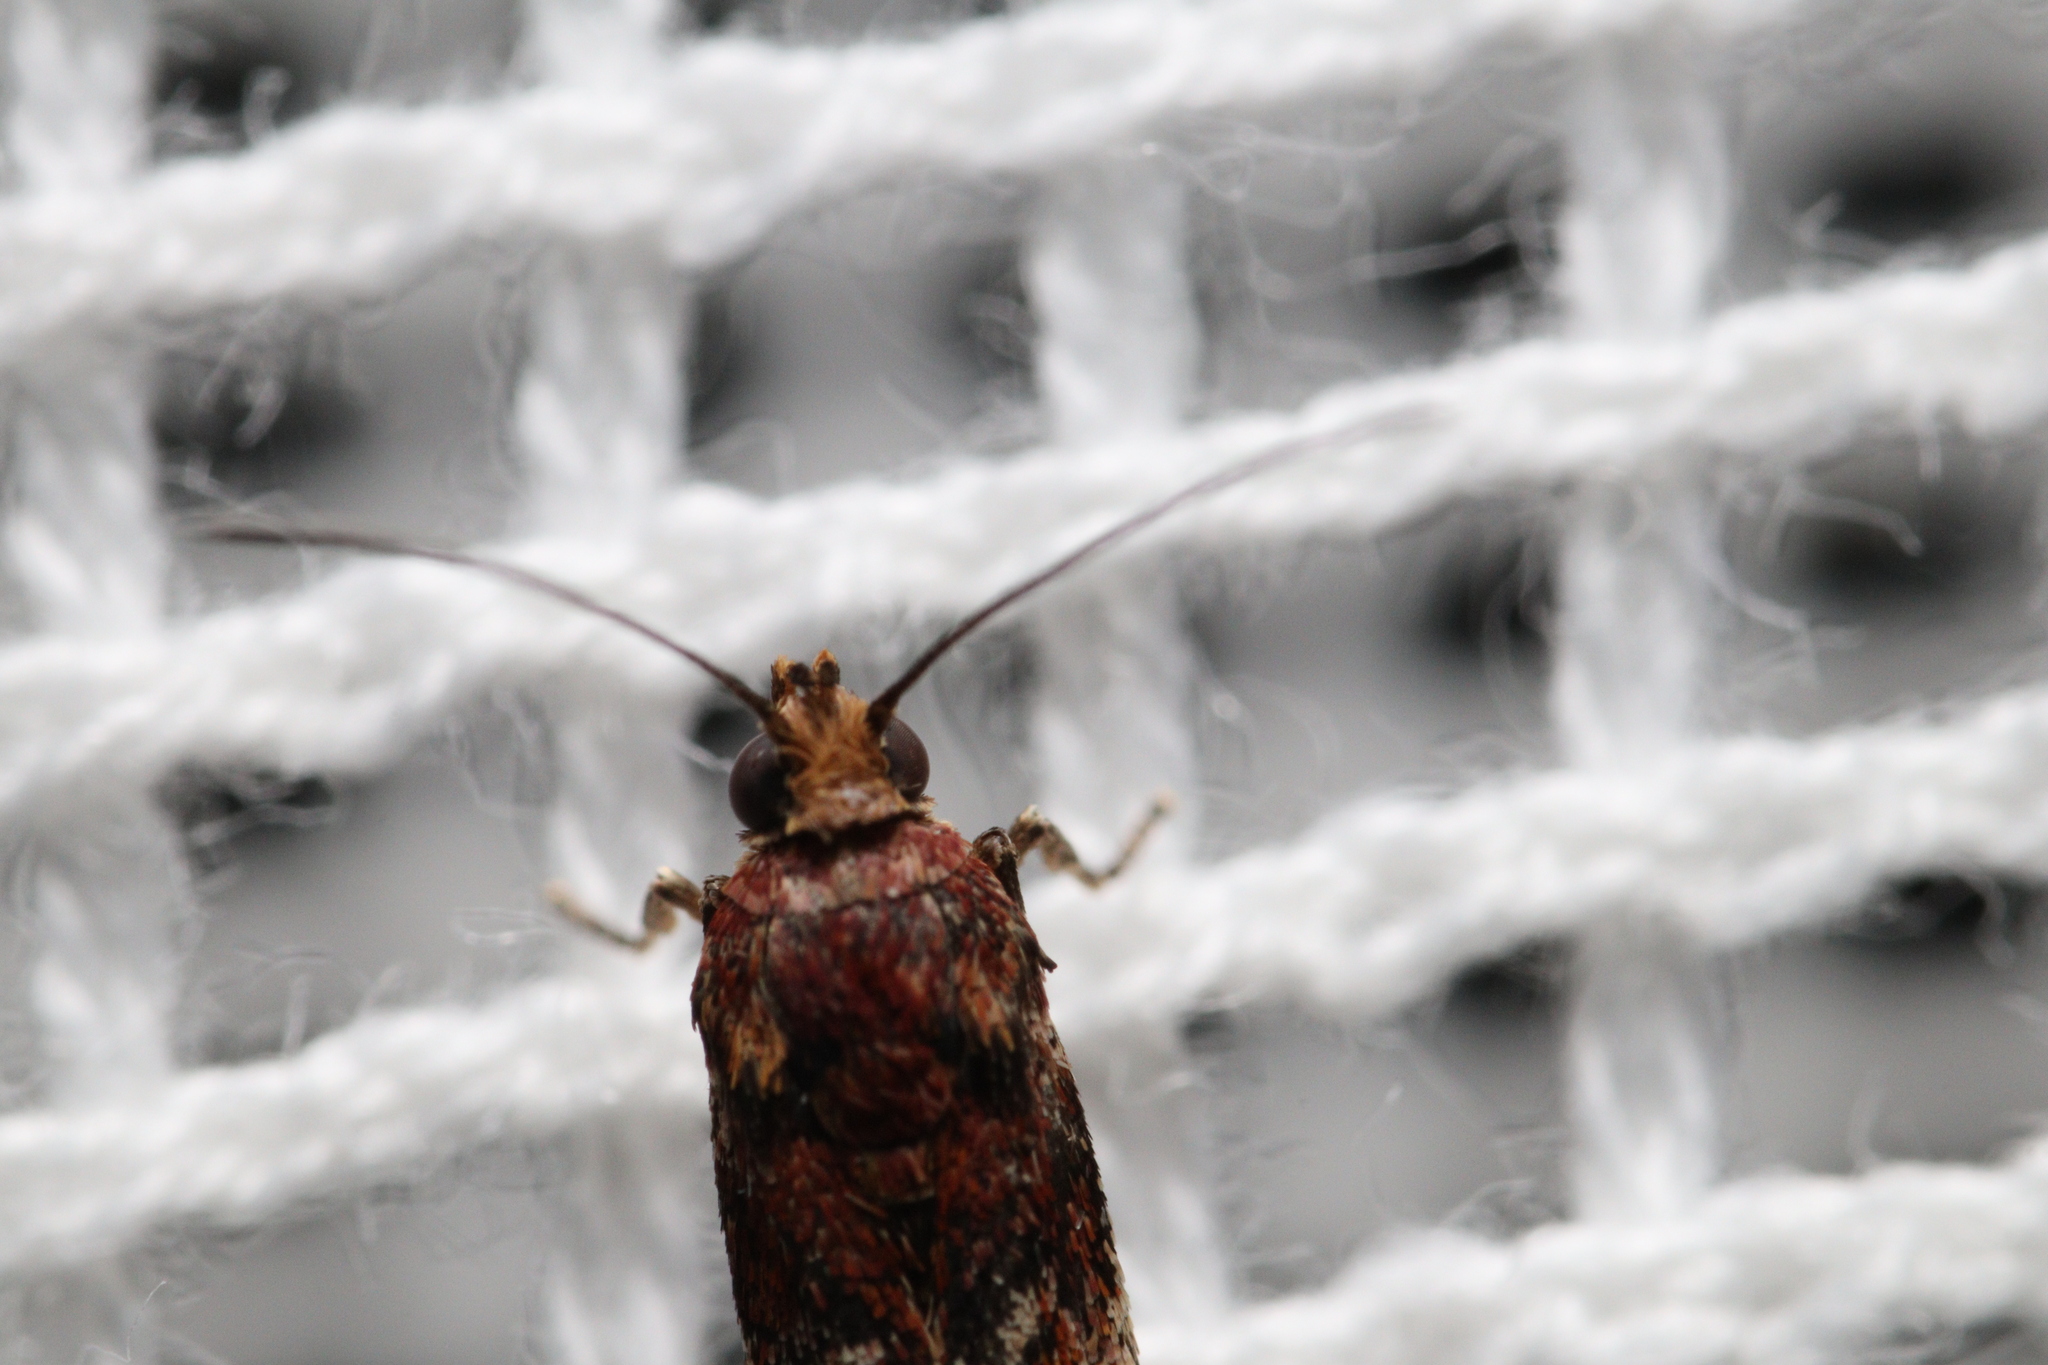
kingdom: Animalia
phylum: Arthropoda
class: Insecta
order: Lepidoptera
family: Pyralidae
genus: Ephestiopsis
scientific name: Ephestiopsis oenobarella
